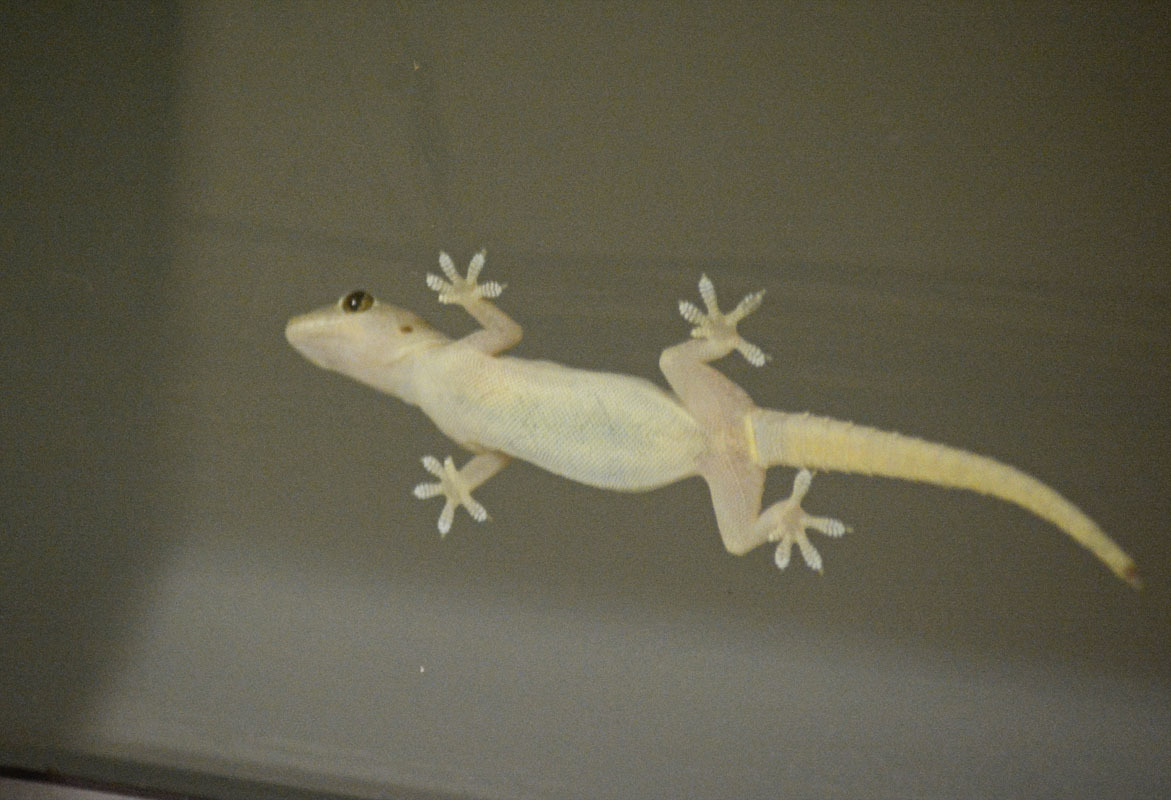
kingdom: Animalia
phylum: Chordata
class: Squamata
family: Gekkonidae
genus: Hemidactylus
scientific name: Hemidactylus frenatus
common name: Common house gecko
